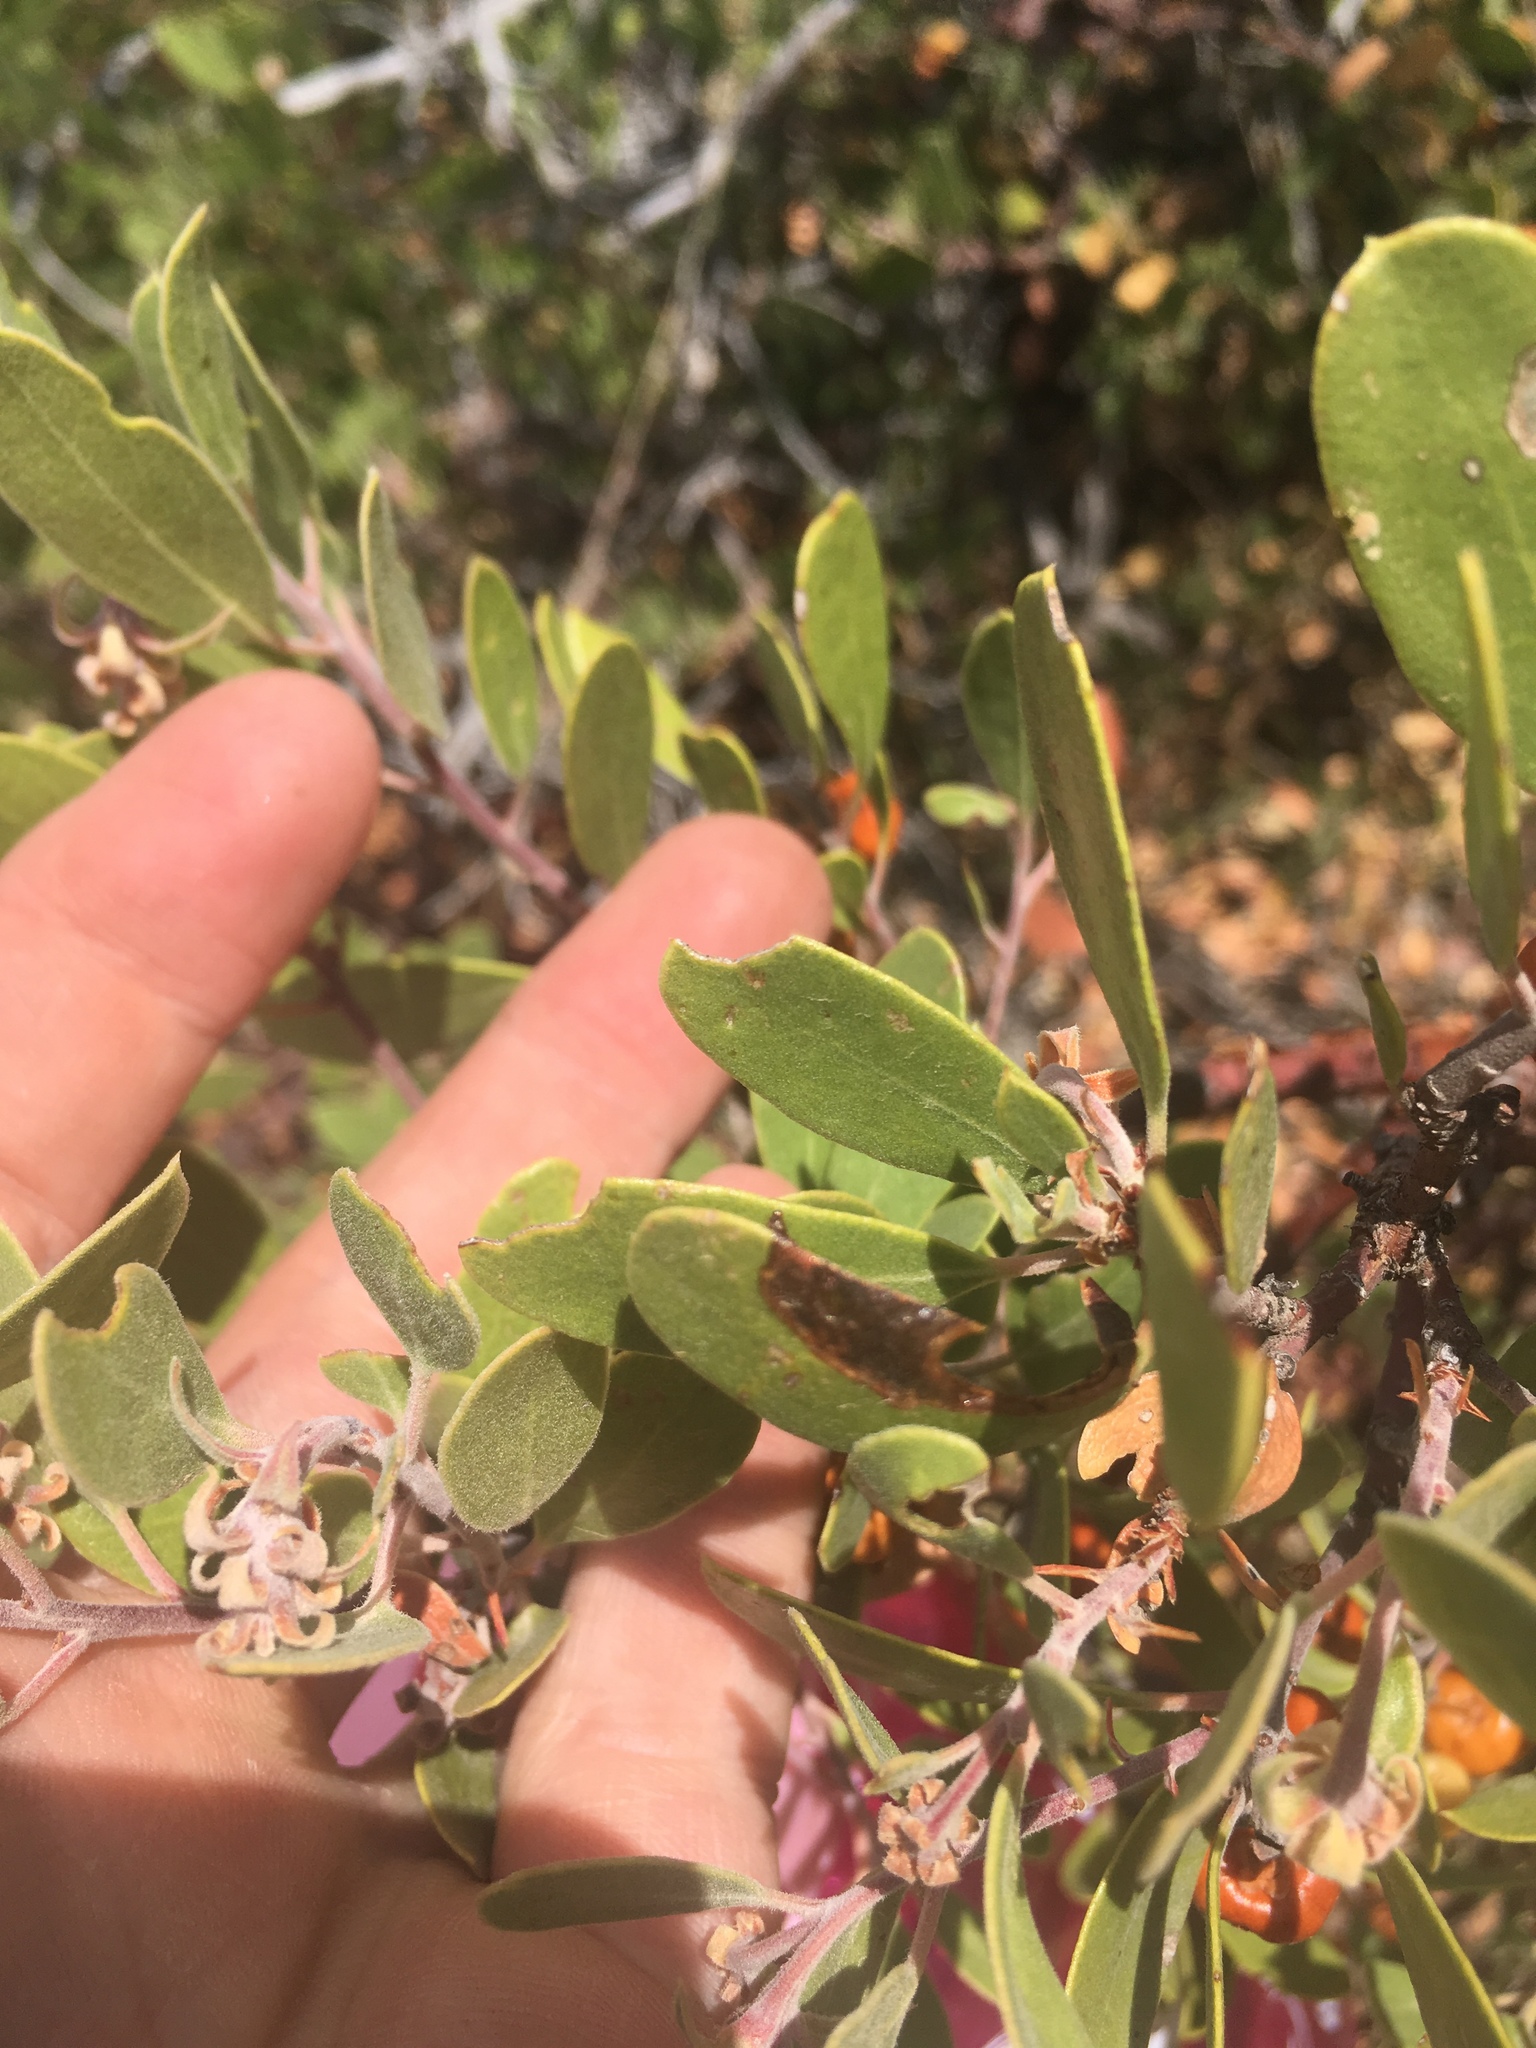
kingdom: Plantae
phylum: Tracheophyta
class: Magnoliopsida
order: Ericales
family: Ericaceae
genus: Arctostaphylos
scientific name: Arctostaphylos pungens
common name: Mexican manzanita
